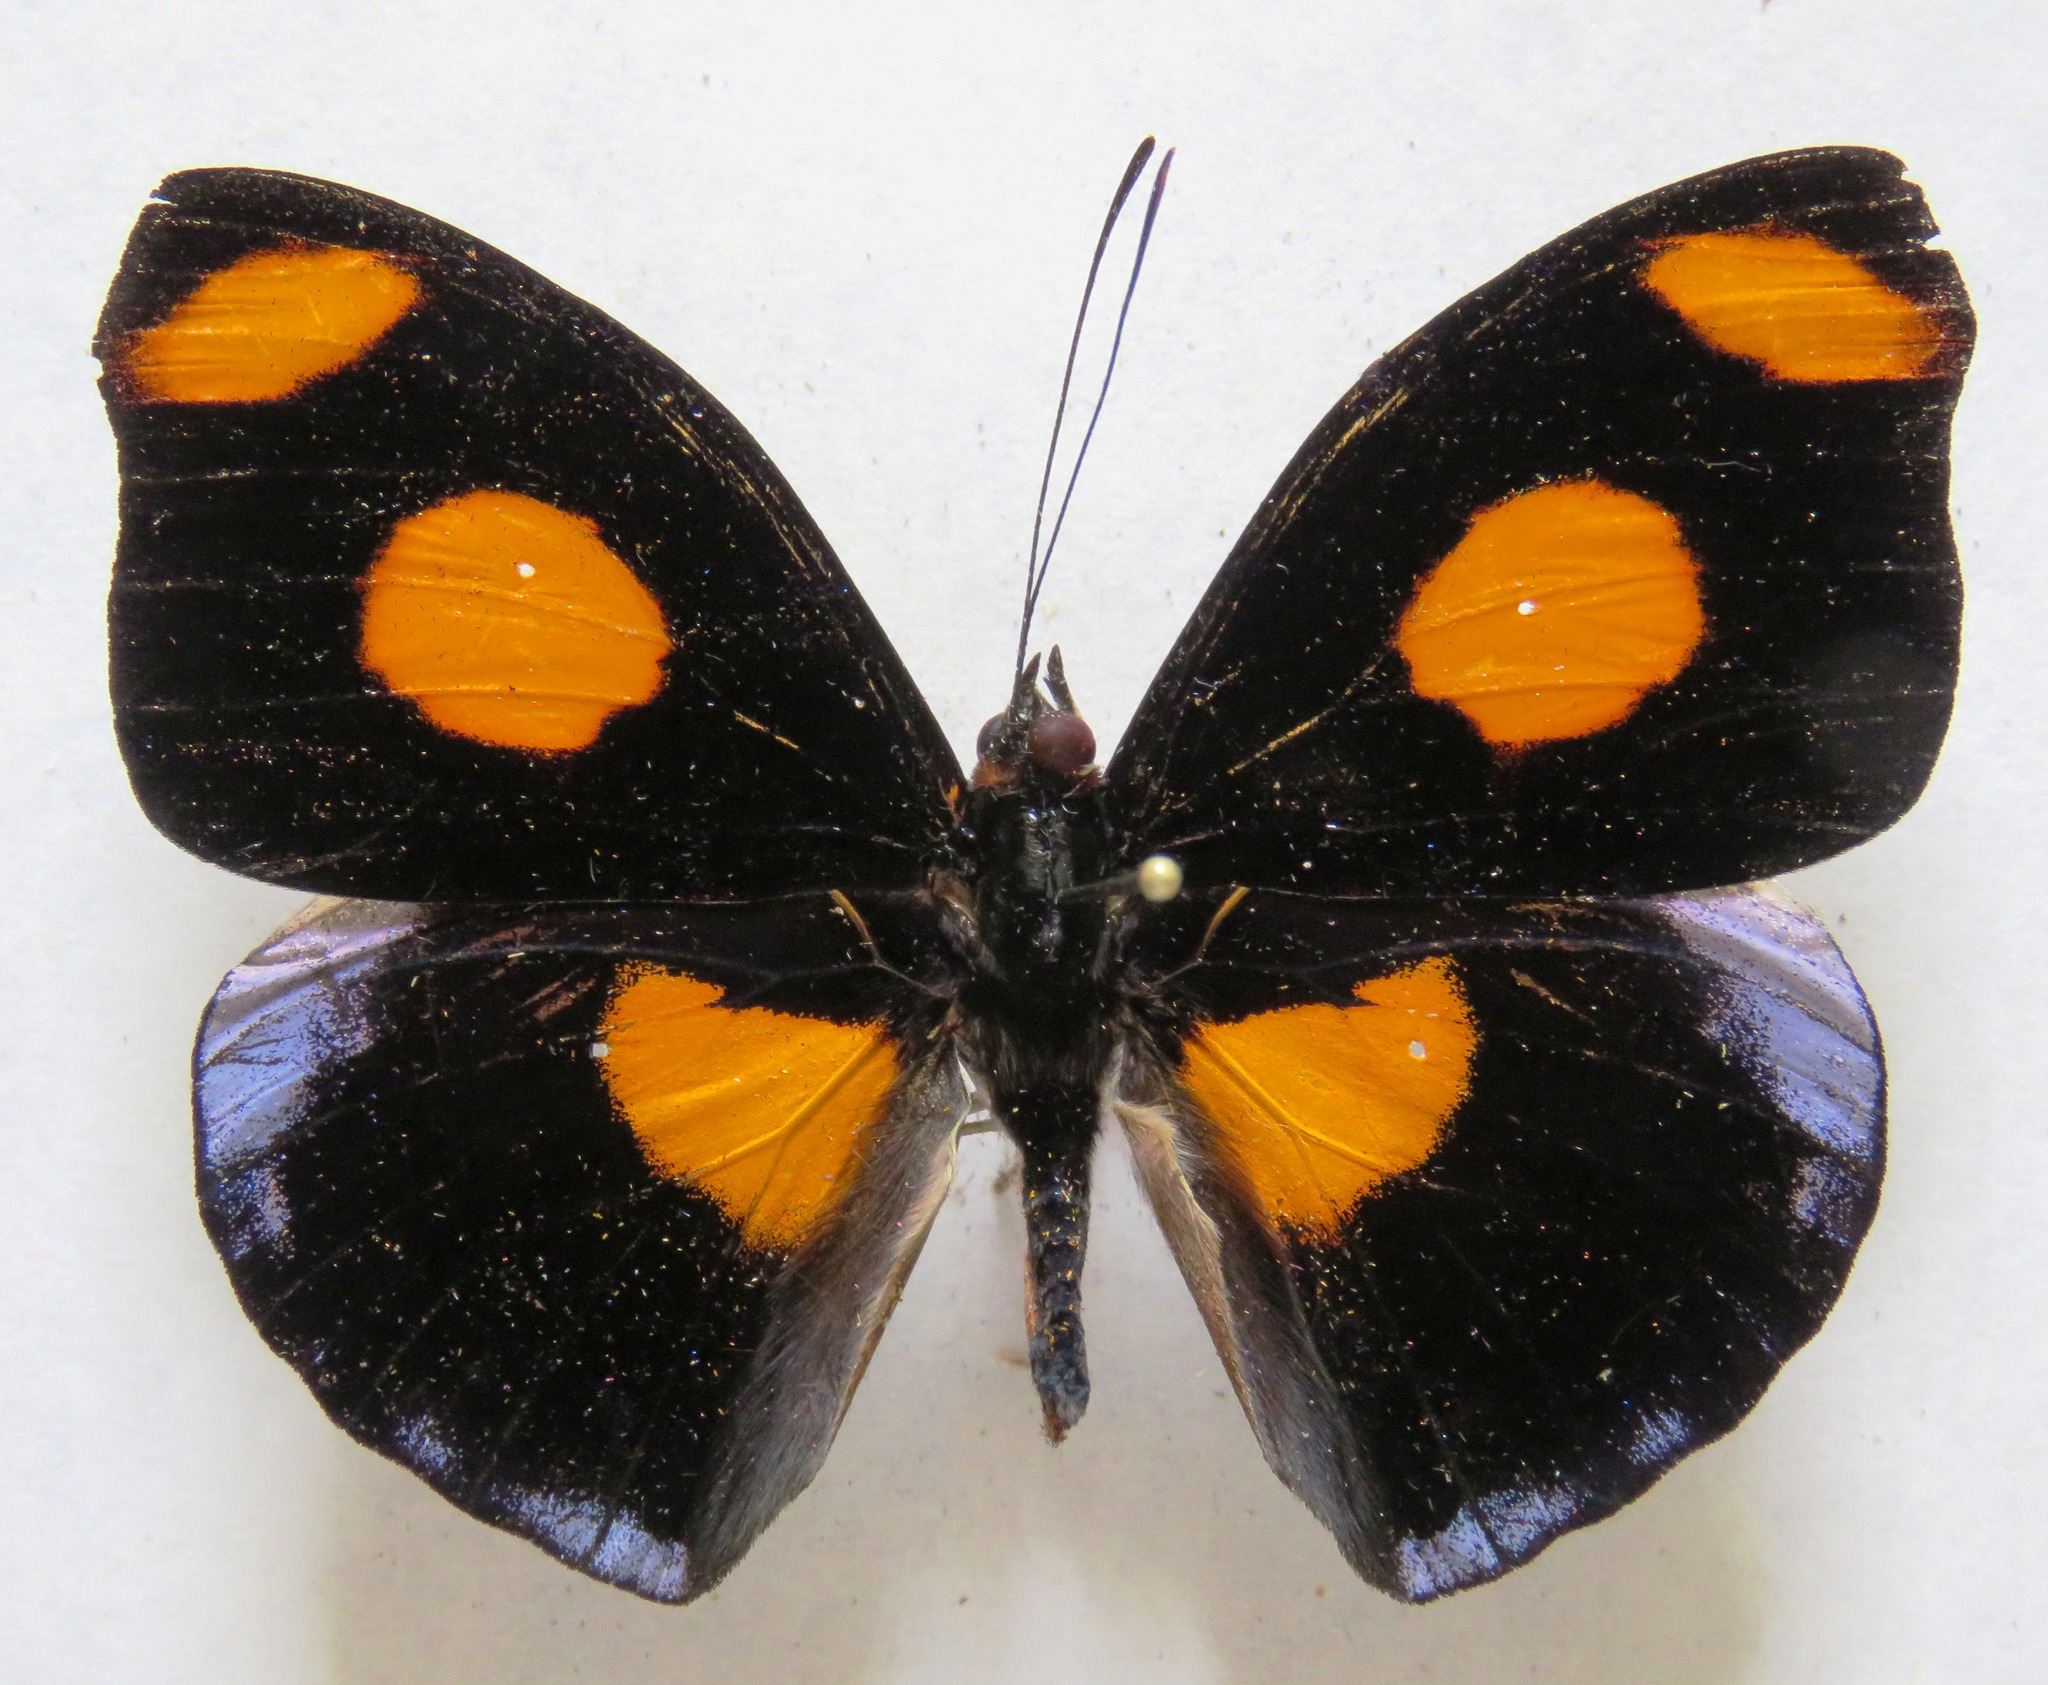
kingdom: Animalia
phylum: Arthropoda
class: Insecta
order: Lepidoptera
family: Nymphalidae
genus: Catonephele
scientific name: Catonephele numilia
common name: Blue-frosted banner
